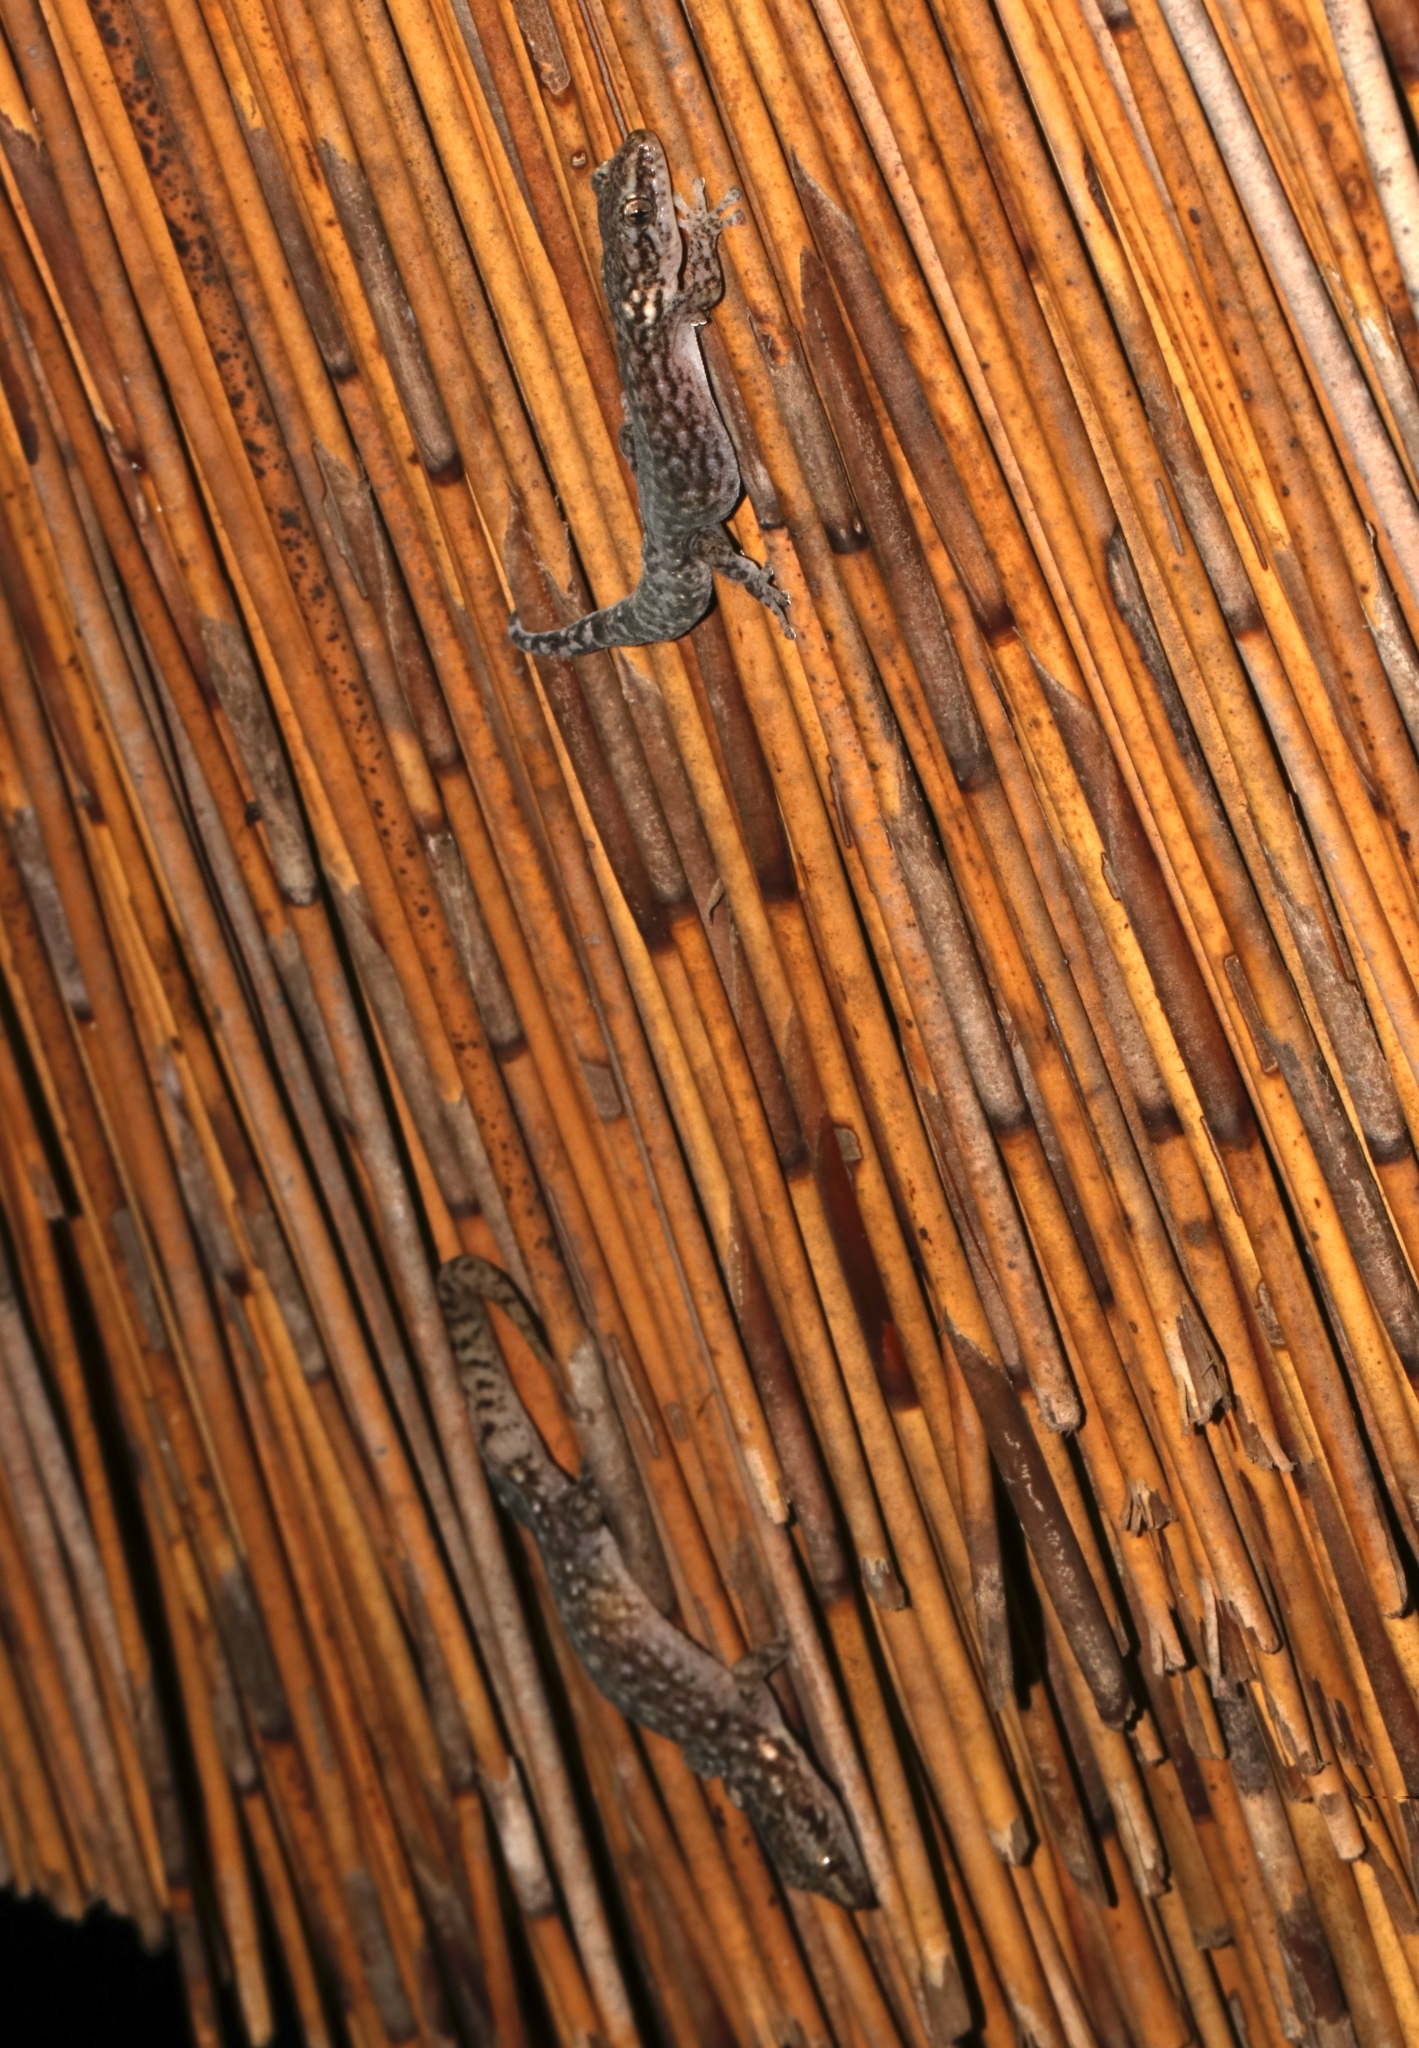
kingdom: Animalia
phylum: Chordata
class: Squamata
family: Gekkonidae
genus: Afrogecko
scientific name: Afrogecko porphyreus
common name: Marbled leaf-toed gecko
